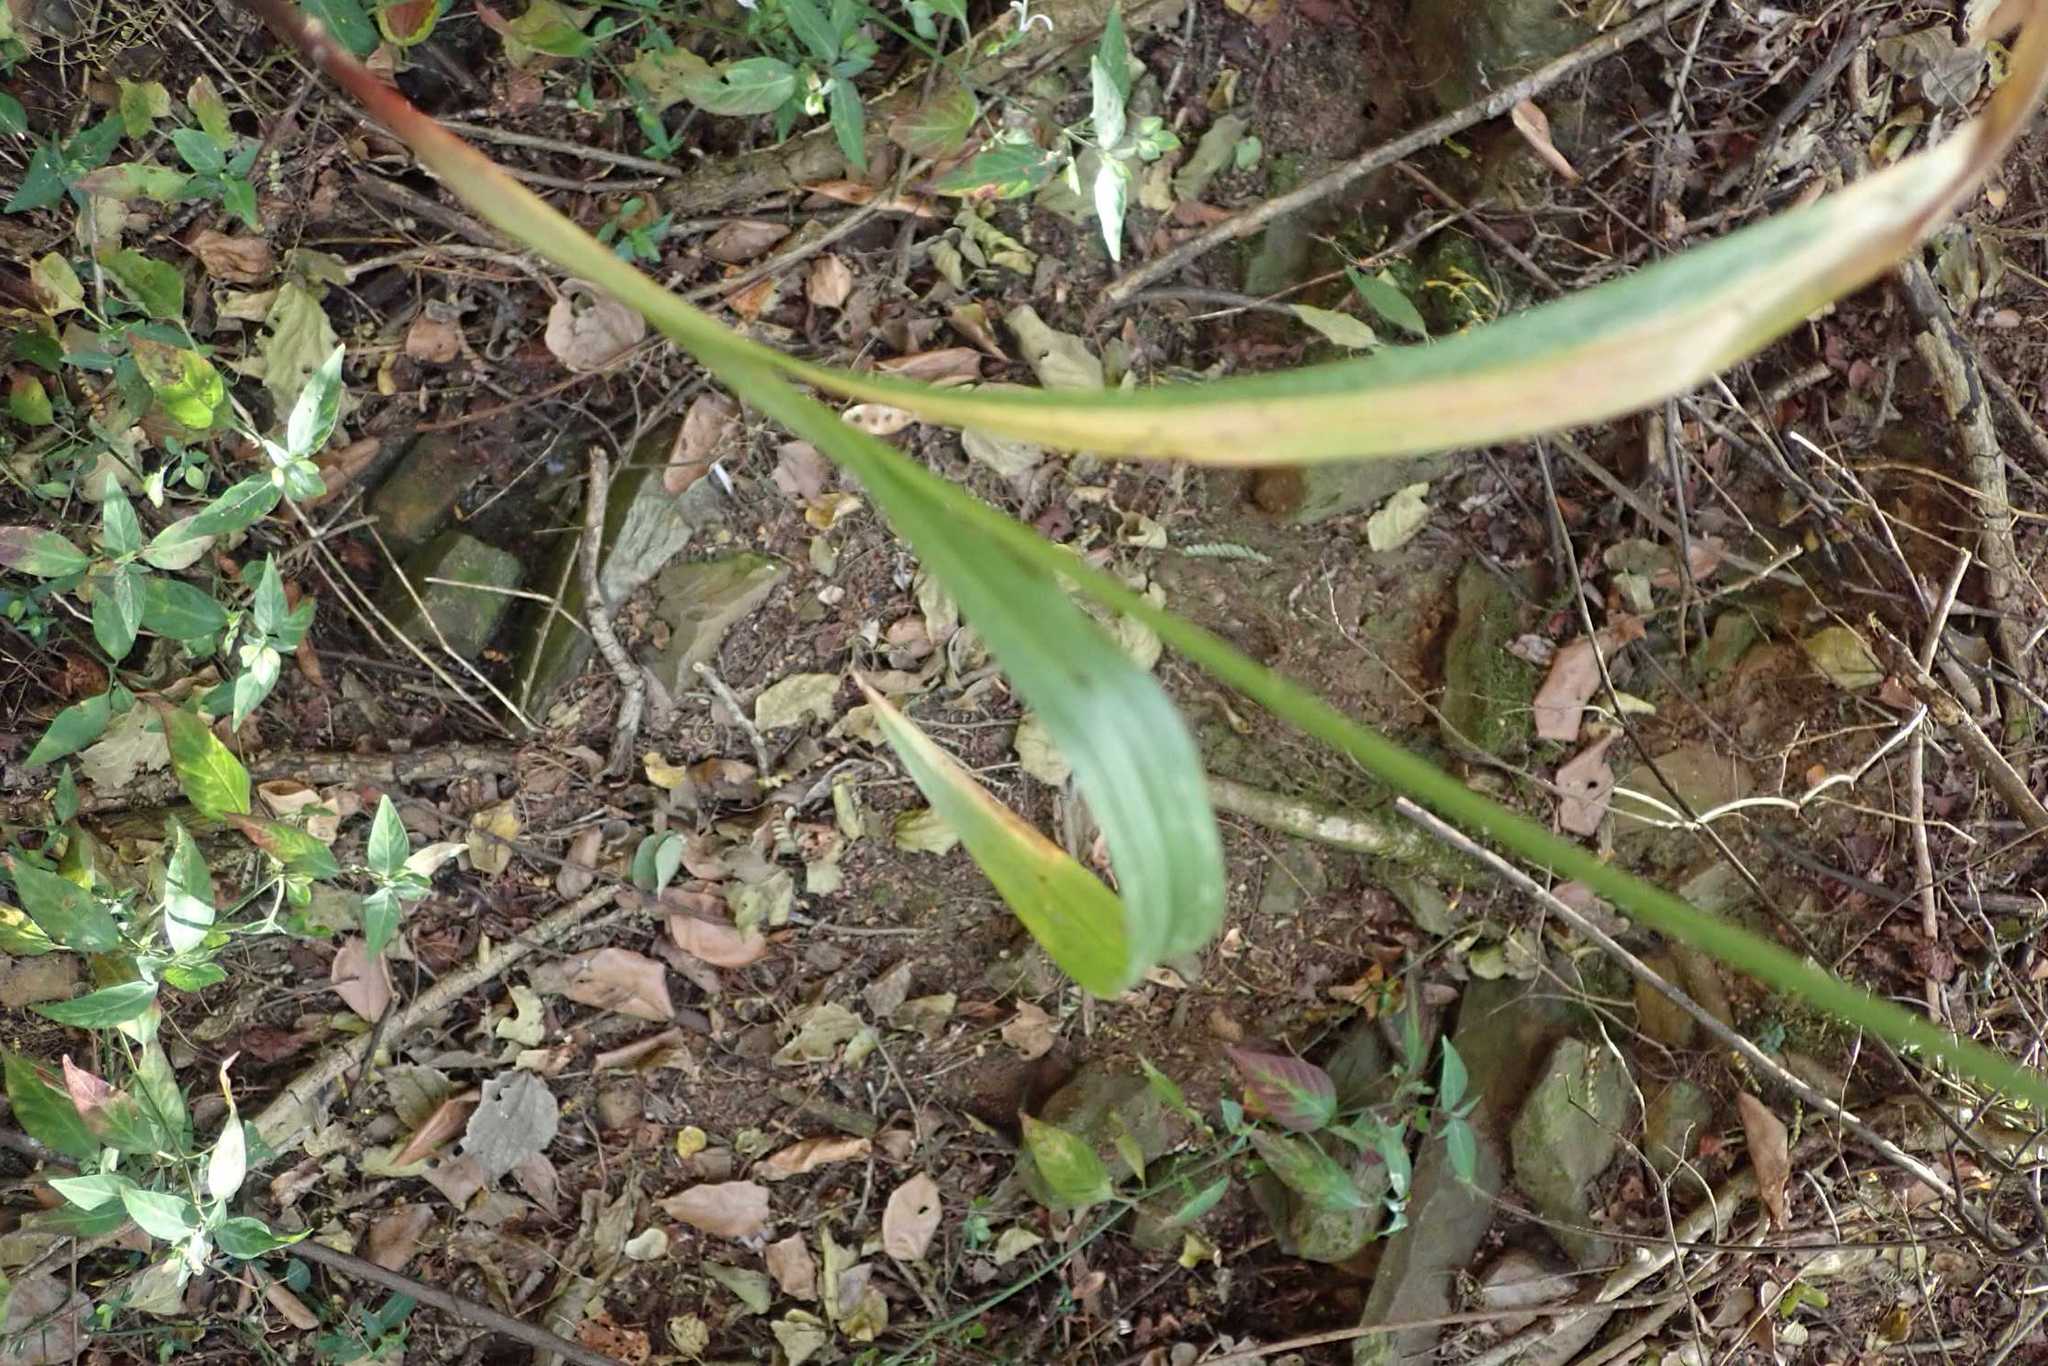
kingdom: Plantae
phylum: Tracheophyta
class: Liliopsida
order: Poales
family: Cyperaceae
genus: Cyperus
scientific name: Cyperus albostriatus
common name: Dwarf umbrella-grass
